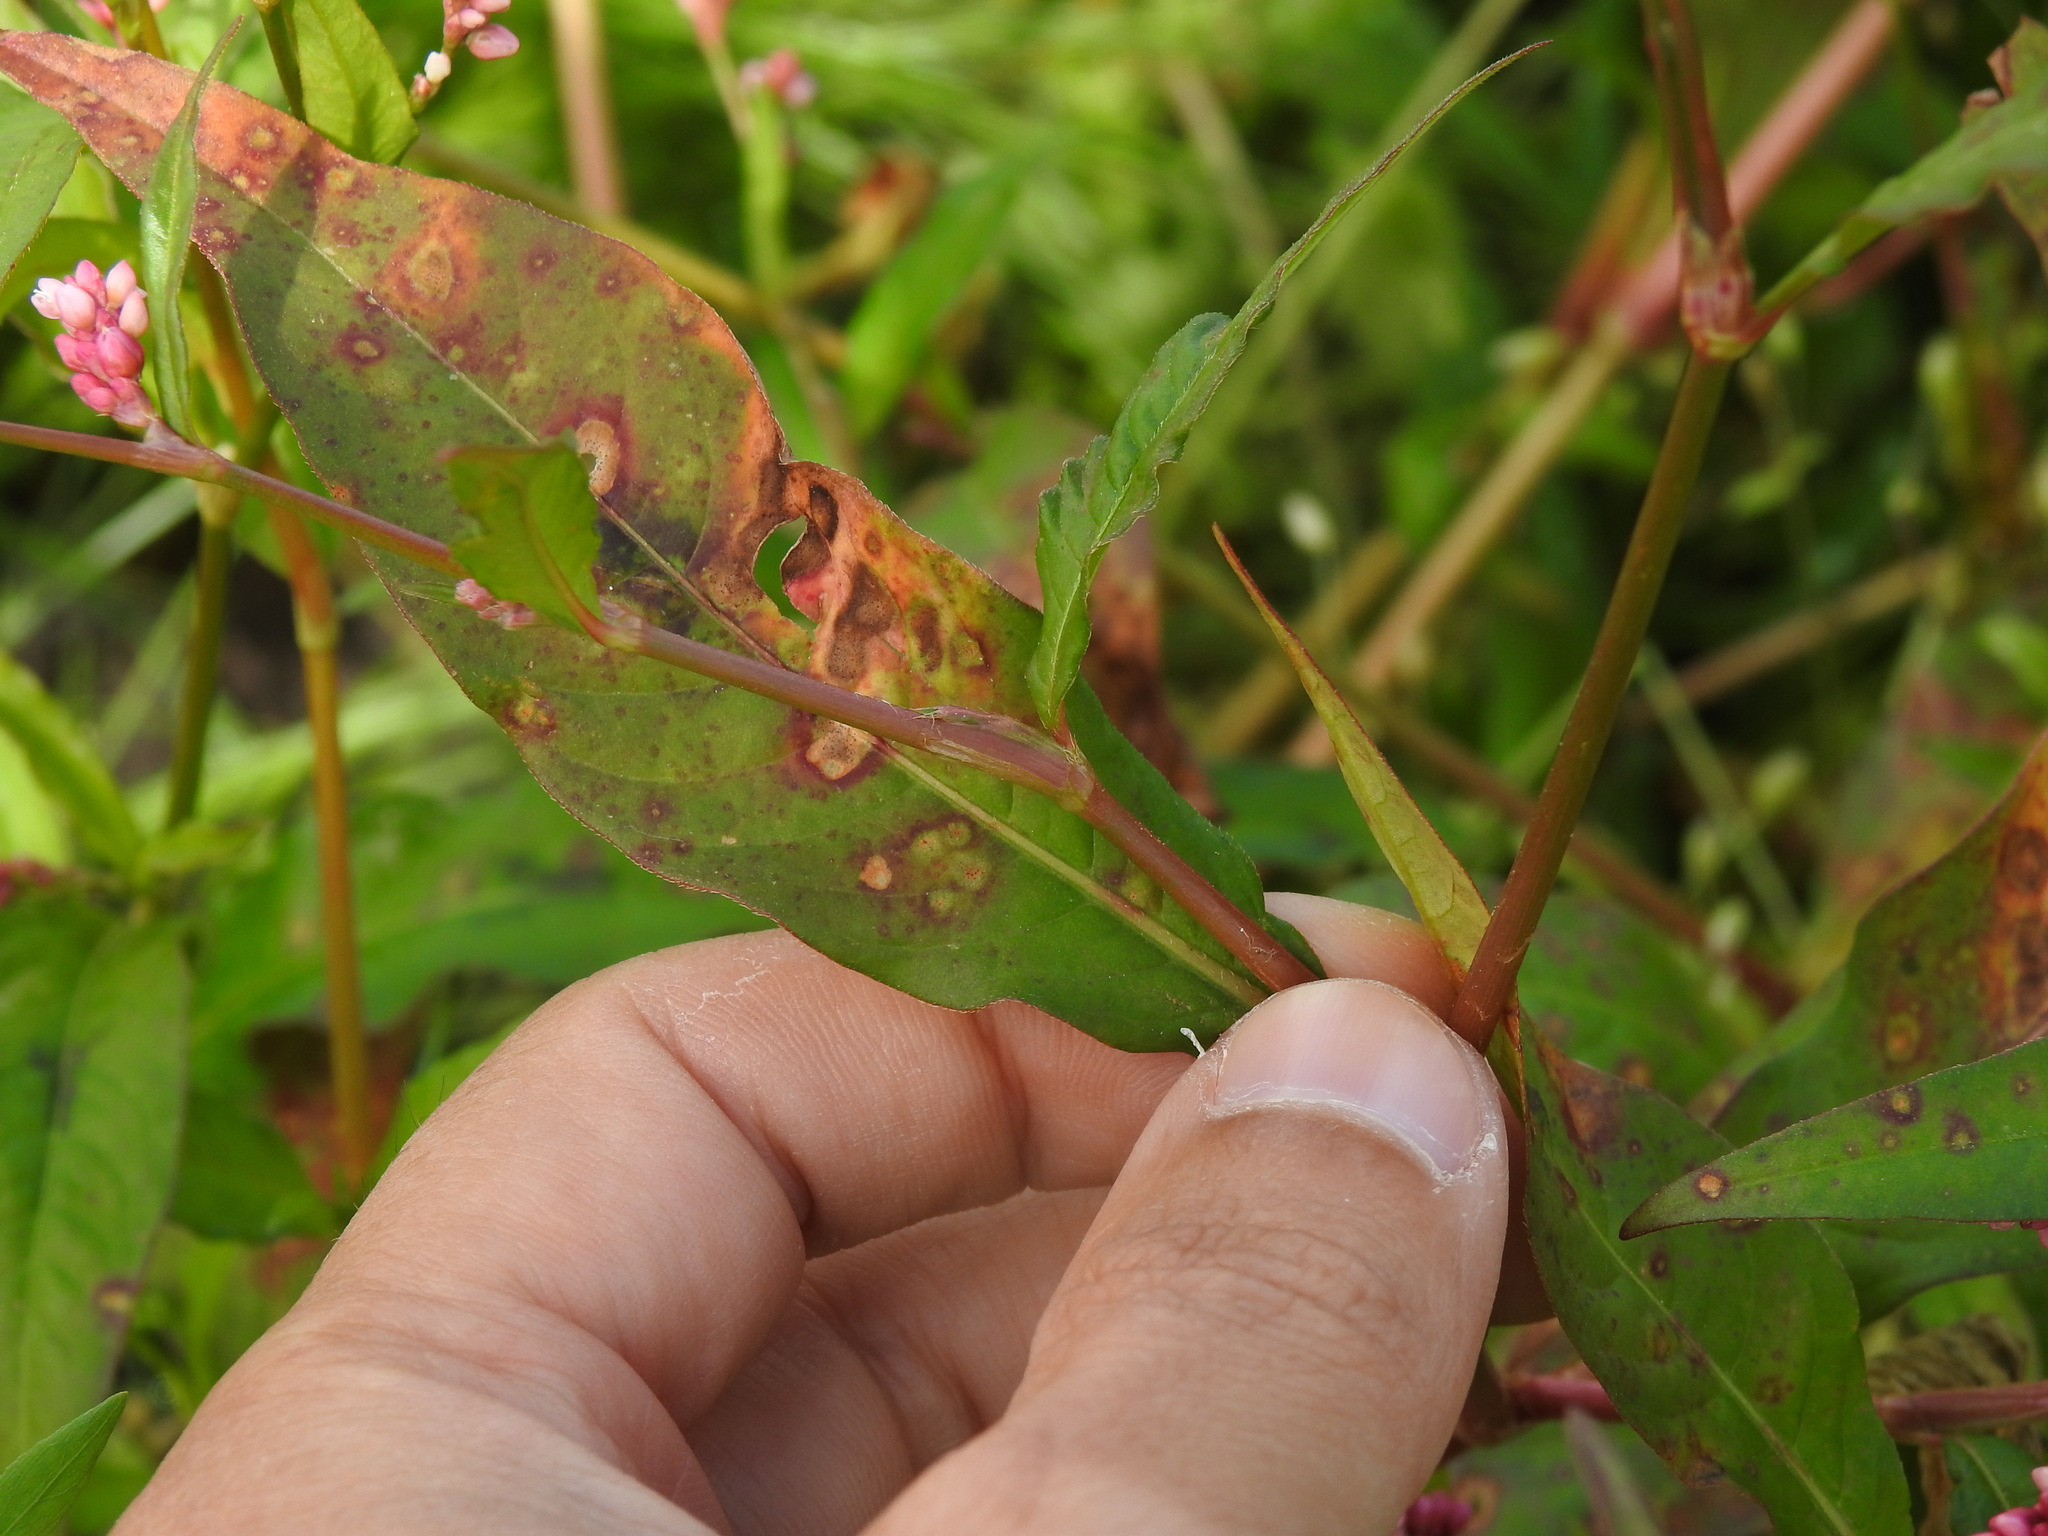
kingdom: Plantae
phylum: Tracheophyta
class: Magnoliopsida
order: Caryophyllales
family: Polygonaceae
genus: Persicaria
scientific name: Persicaria maculosa
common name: Redshank
